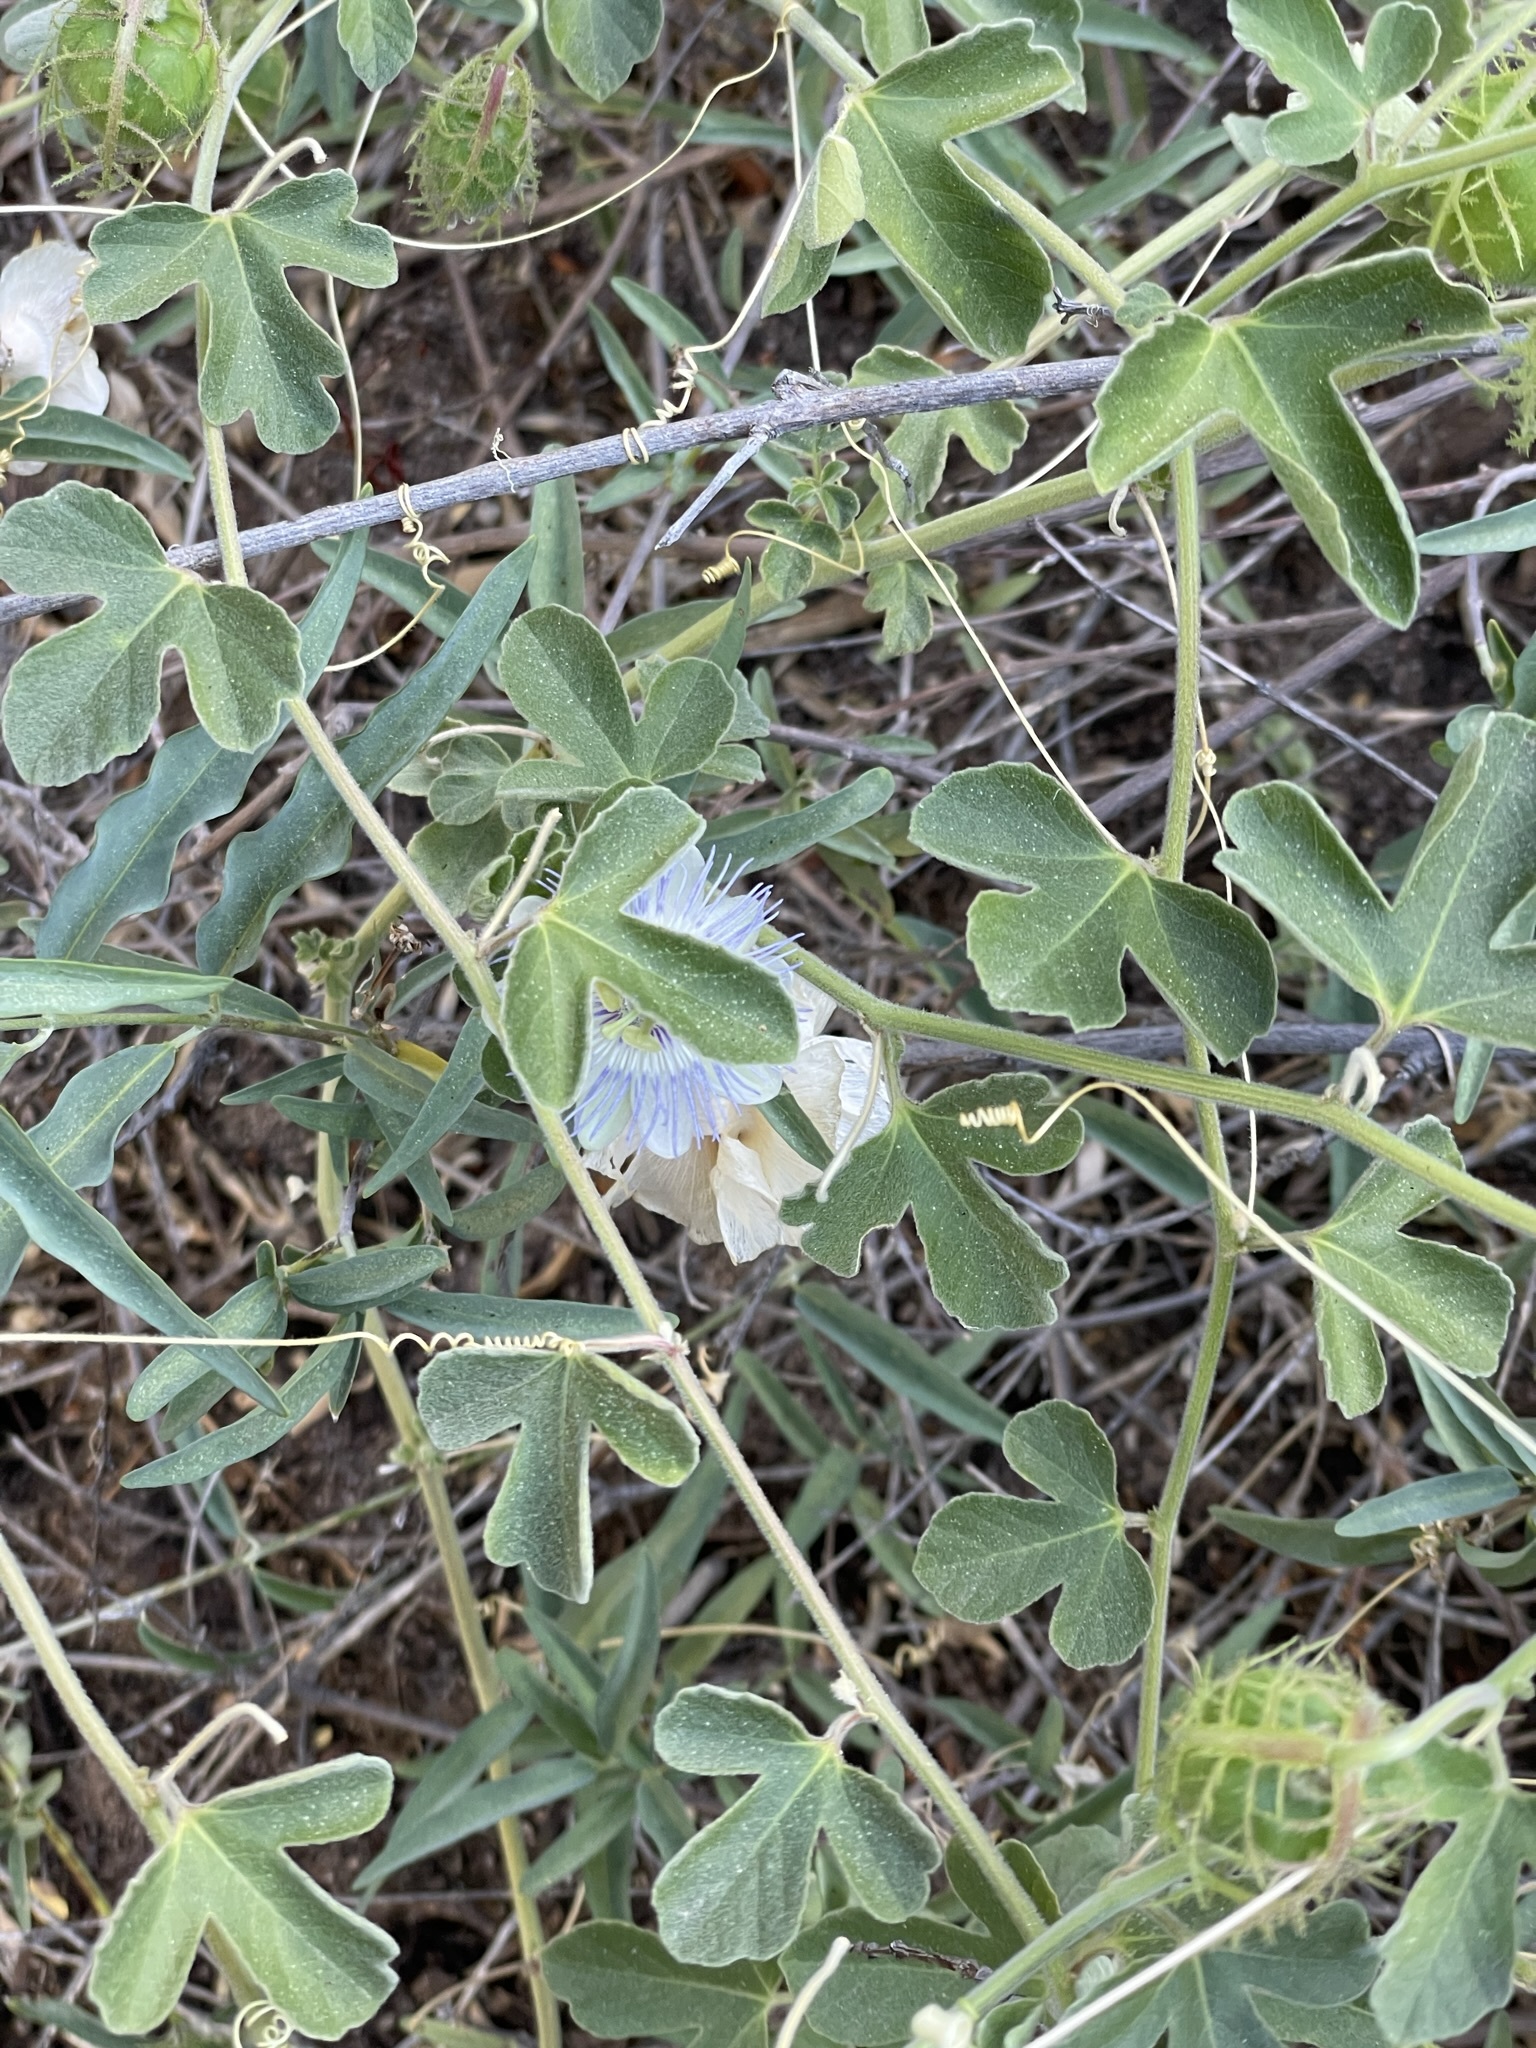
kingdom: Plantae
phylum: Tracheophyta
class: Magnoliopsida
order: Malpighiales
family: Passifloraceae
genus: Passiflora
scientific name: Passiflora arida
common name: Desert passionflower
